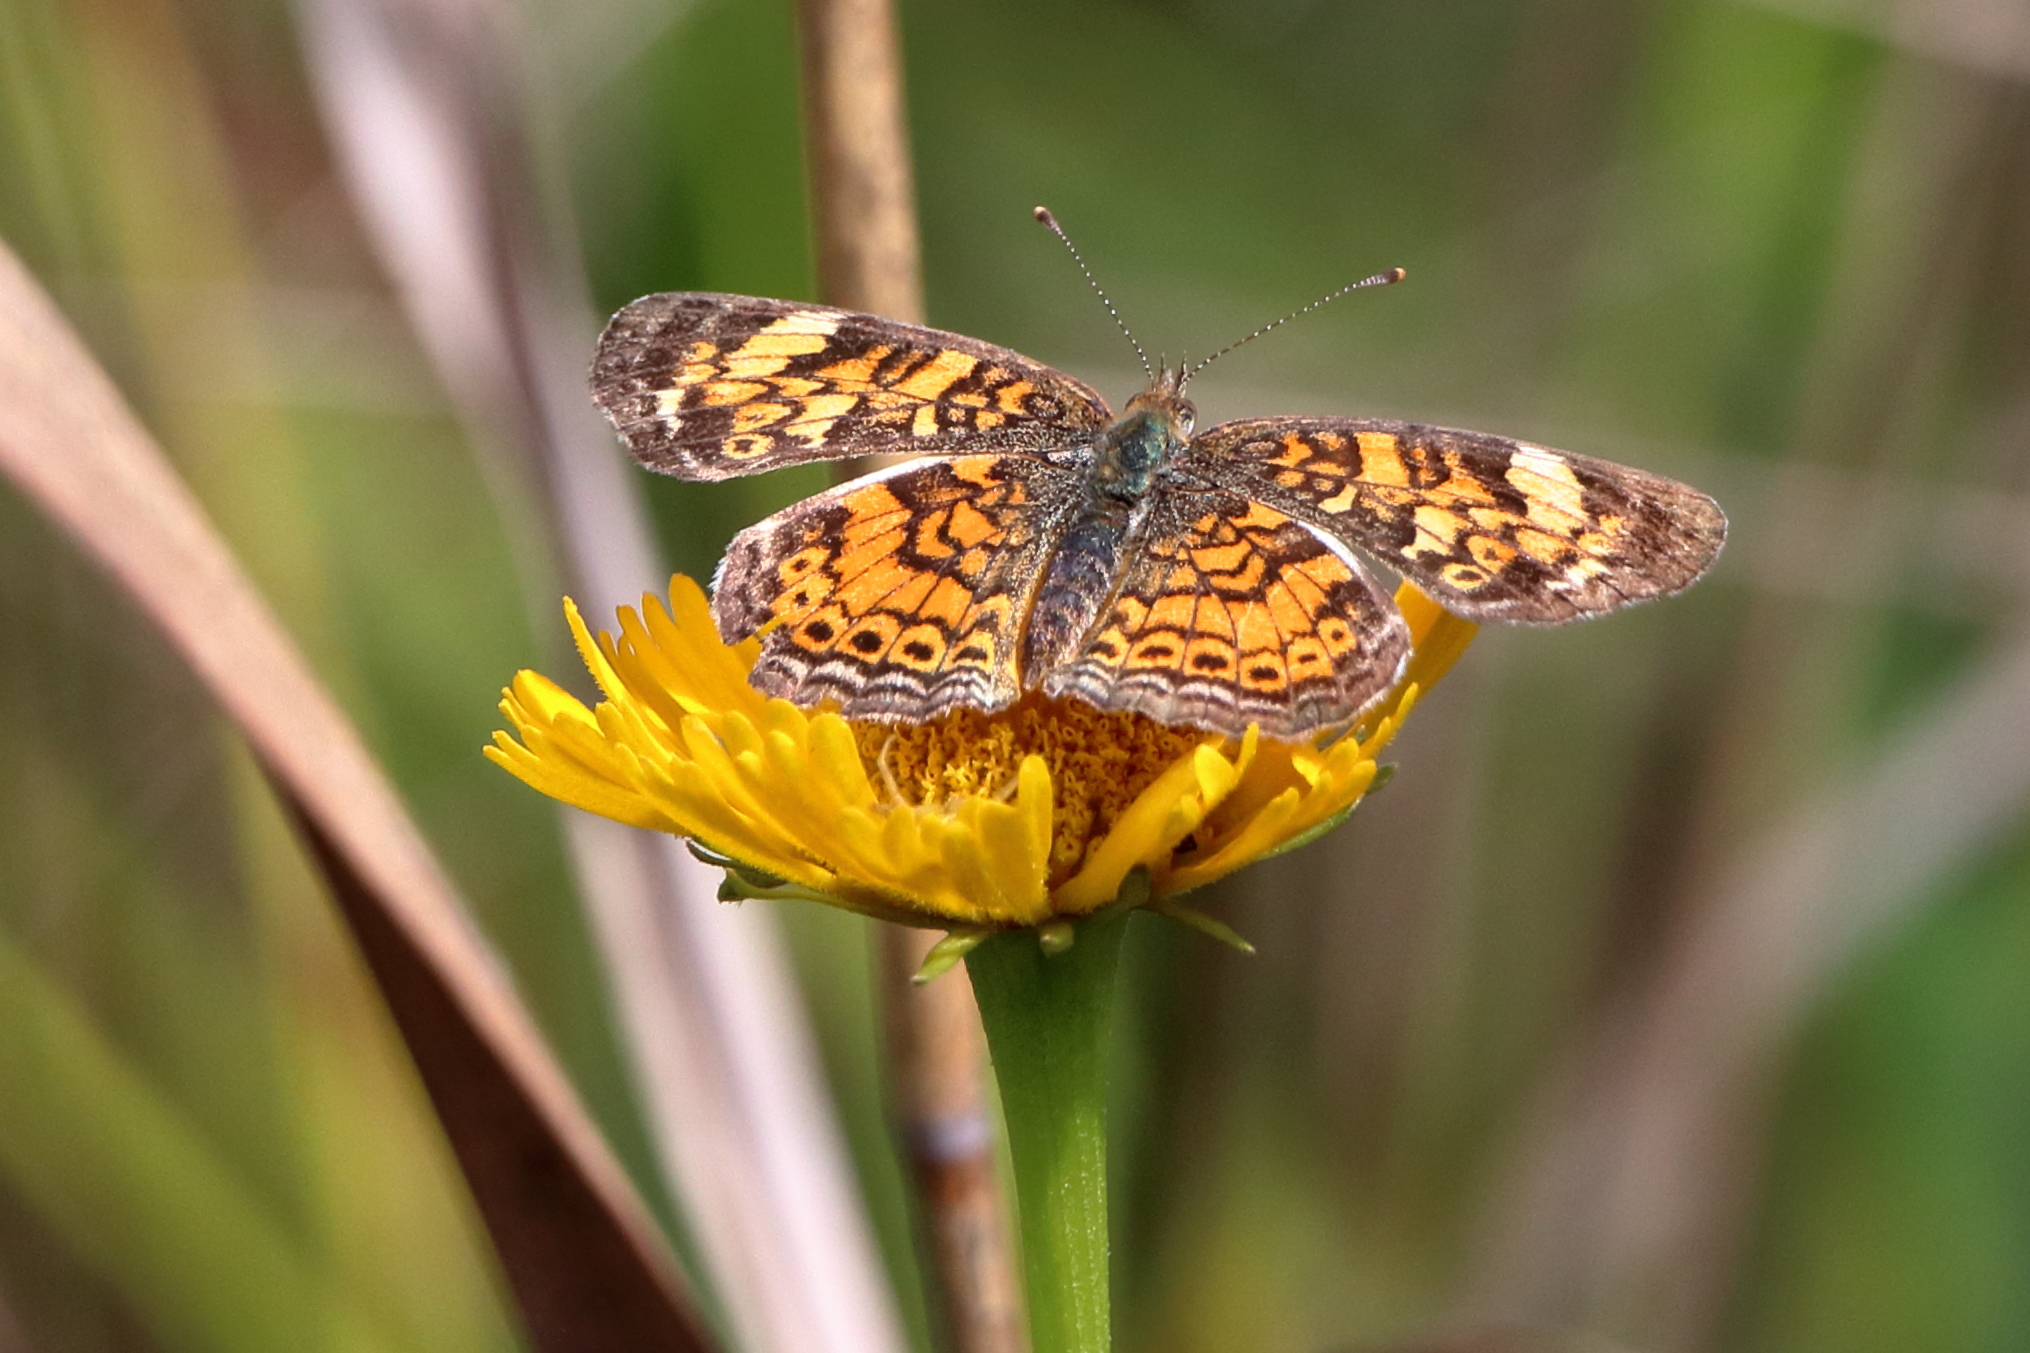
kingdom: Animalia
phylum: Arthropoda
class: Insecta
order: Lepidoptera
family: Nymphalidae
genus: Phyciodes
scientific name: Phyciodes tharos
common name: Pearl crescent
